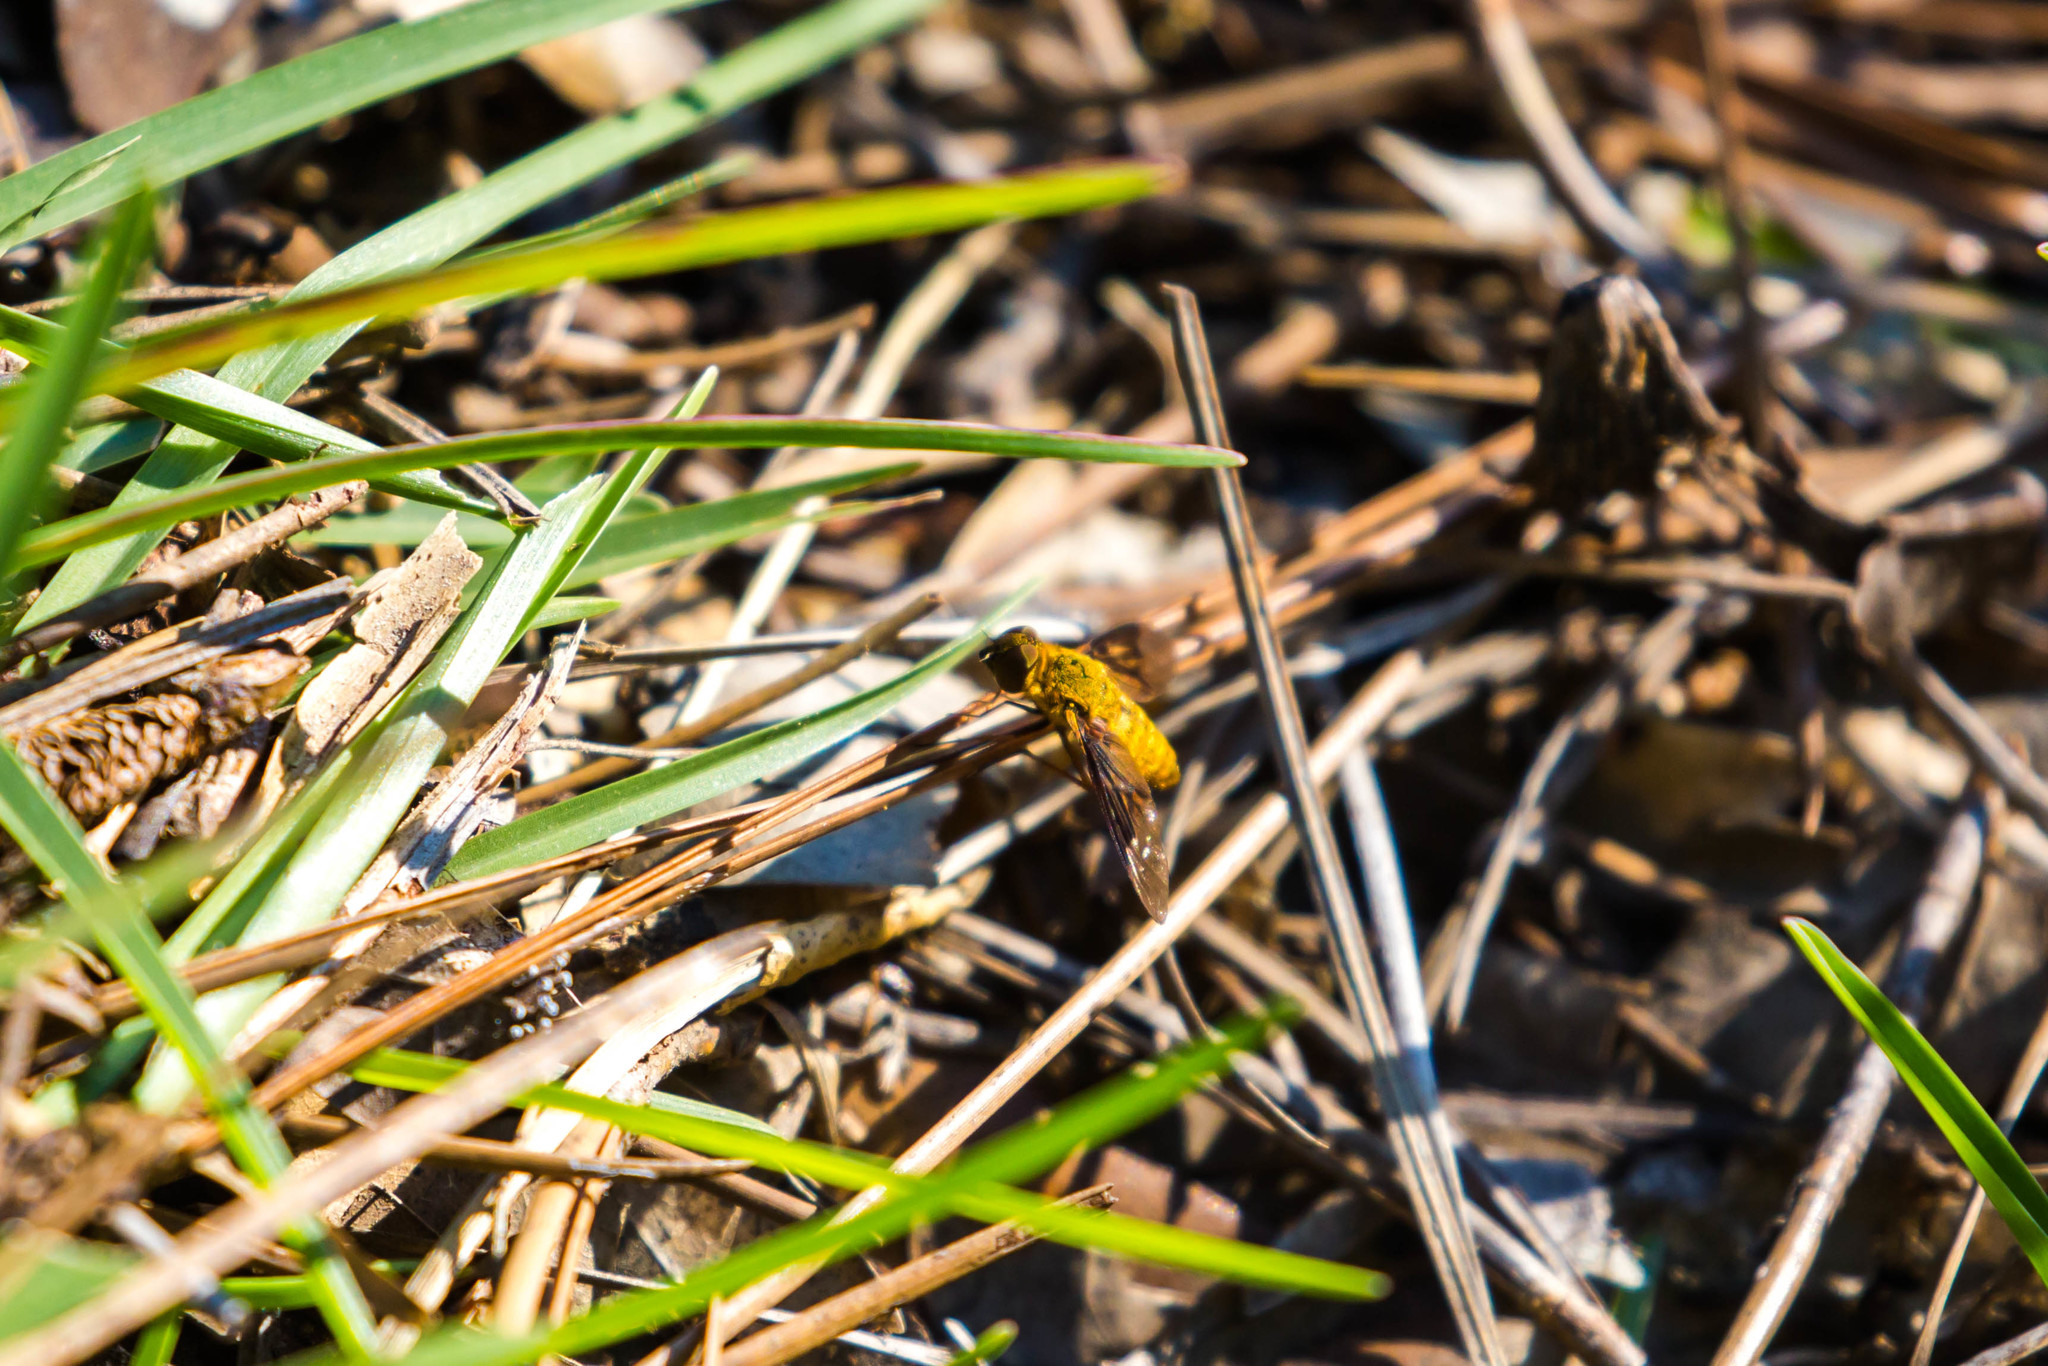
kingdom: Animalia
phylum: Arthropoda
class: Insecta
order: Diptera
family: Bombyliidae
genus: Chrysanthrax
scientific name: Chrysanthrax cypris
